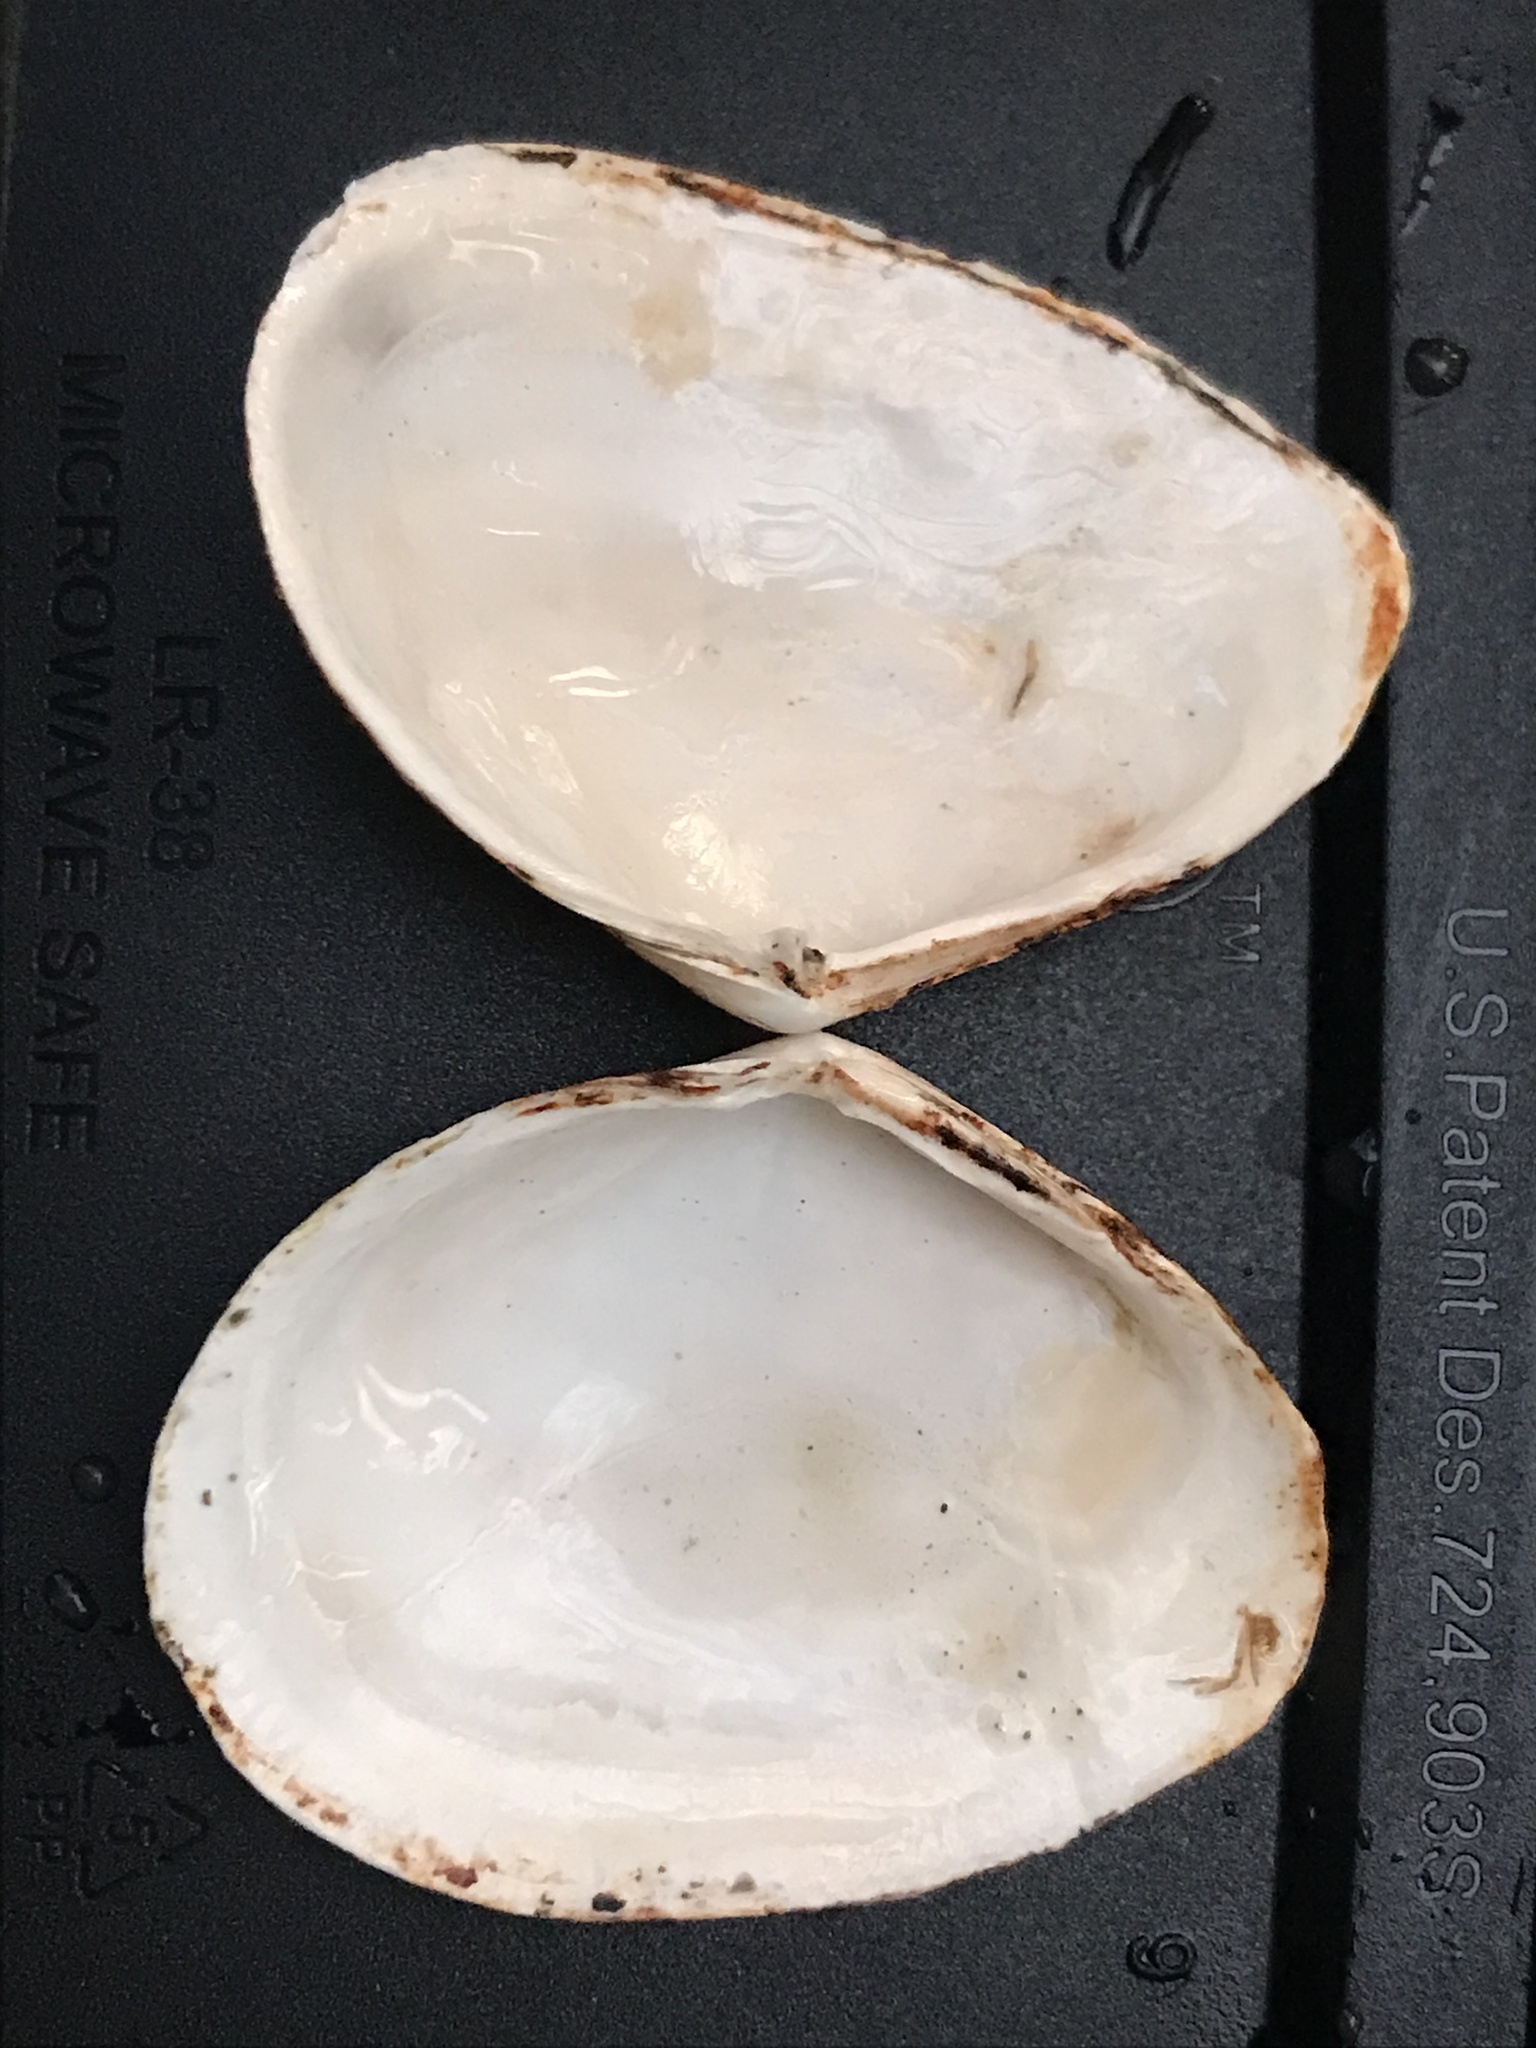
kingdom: Animalia
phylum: Mollusca
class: Bivalvia
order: Cardiida
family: Tellinidae
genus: Macoma
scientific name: Macoma nasuta
